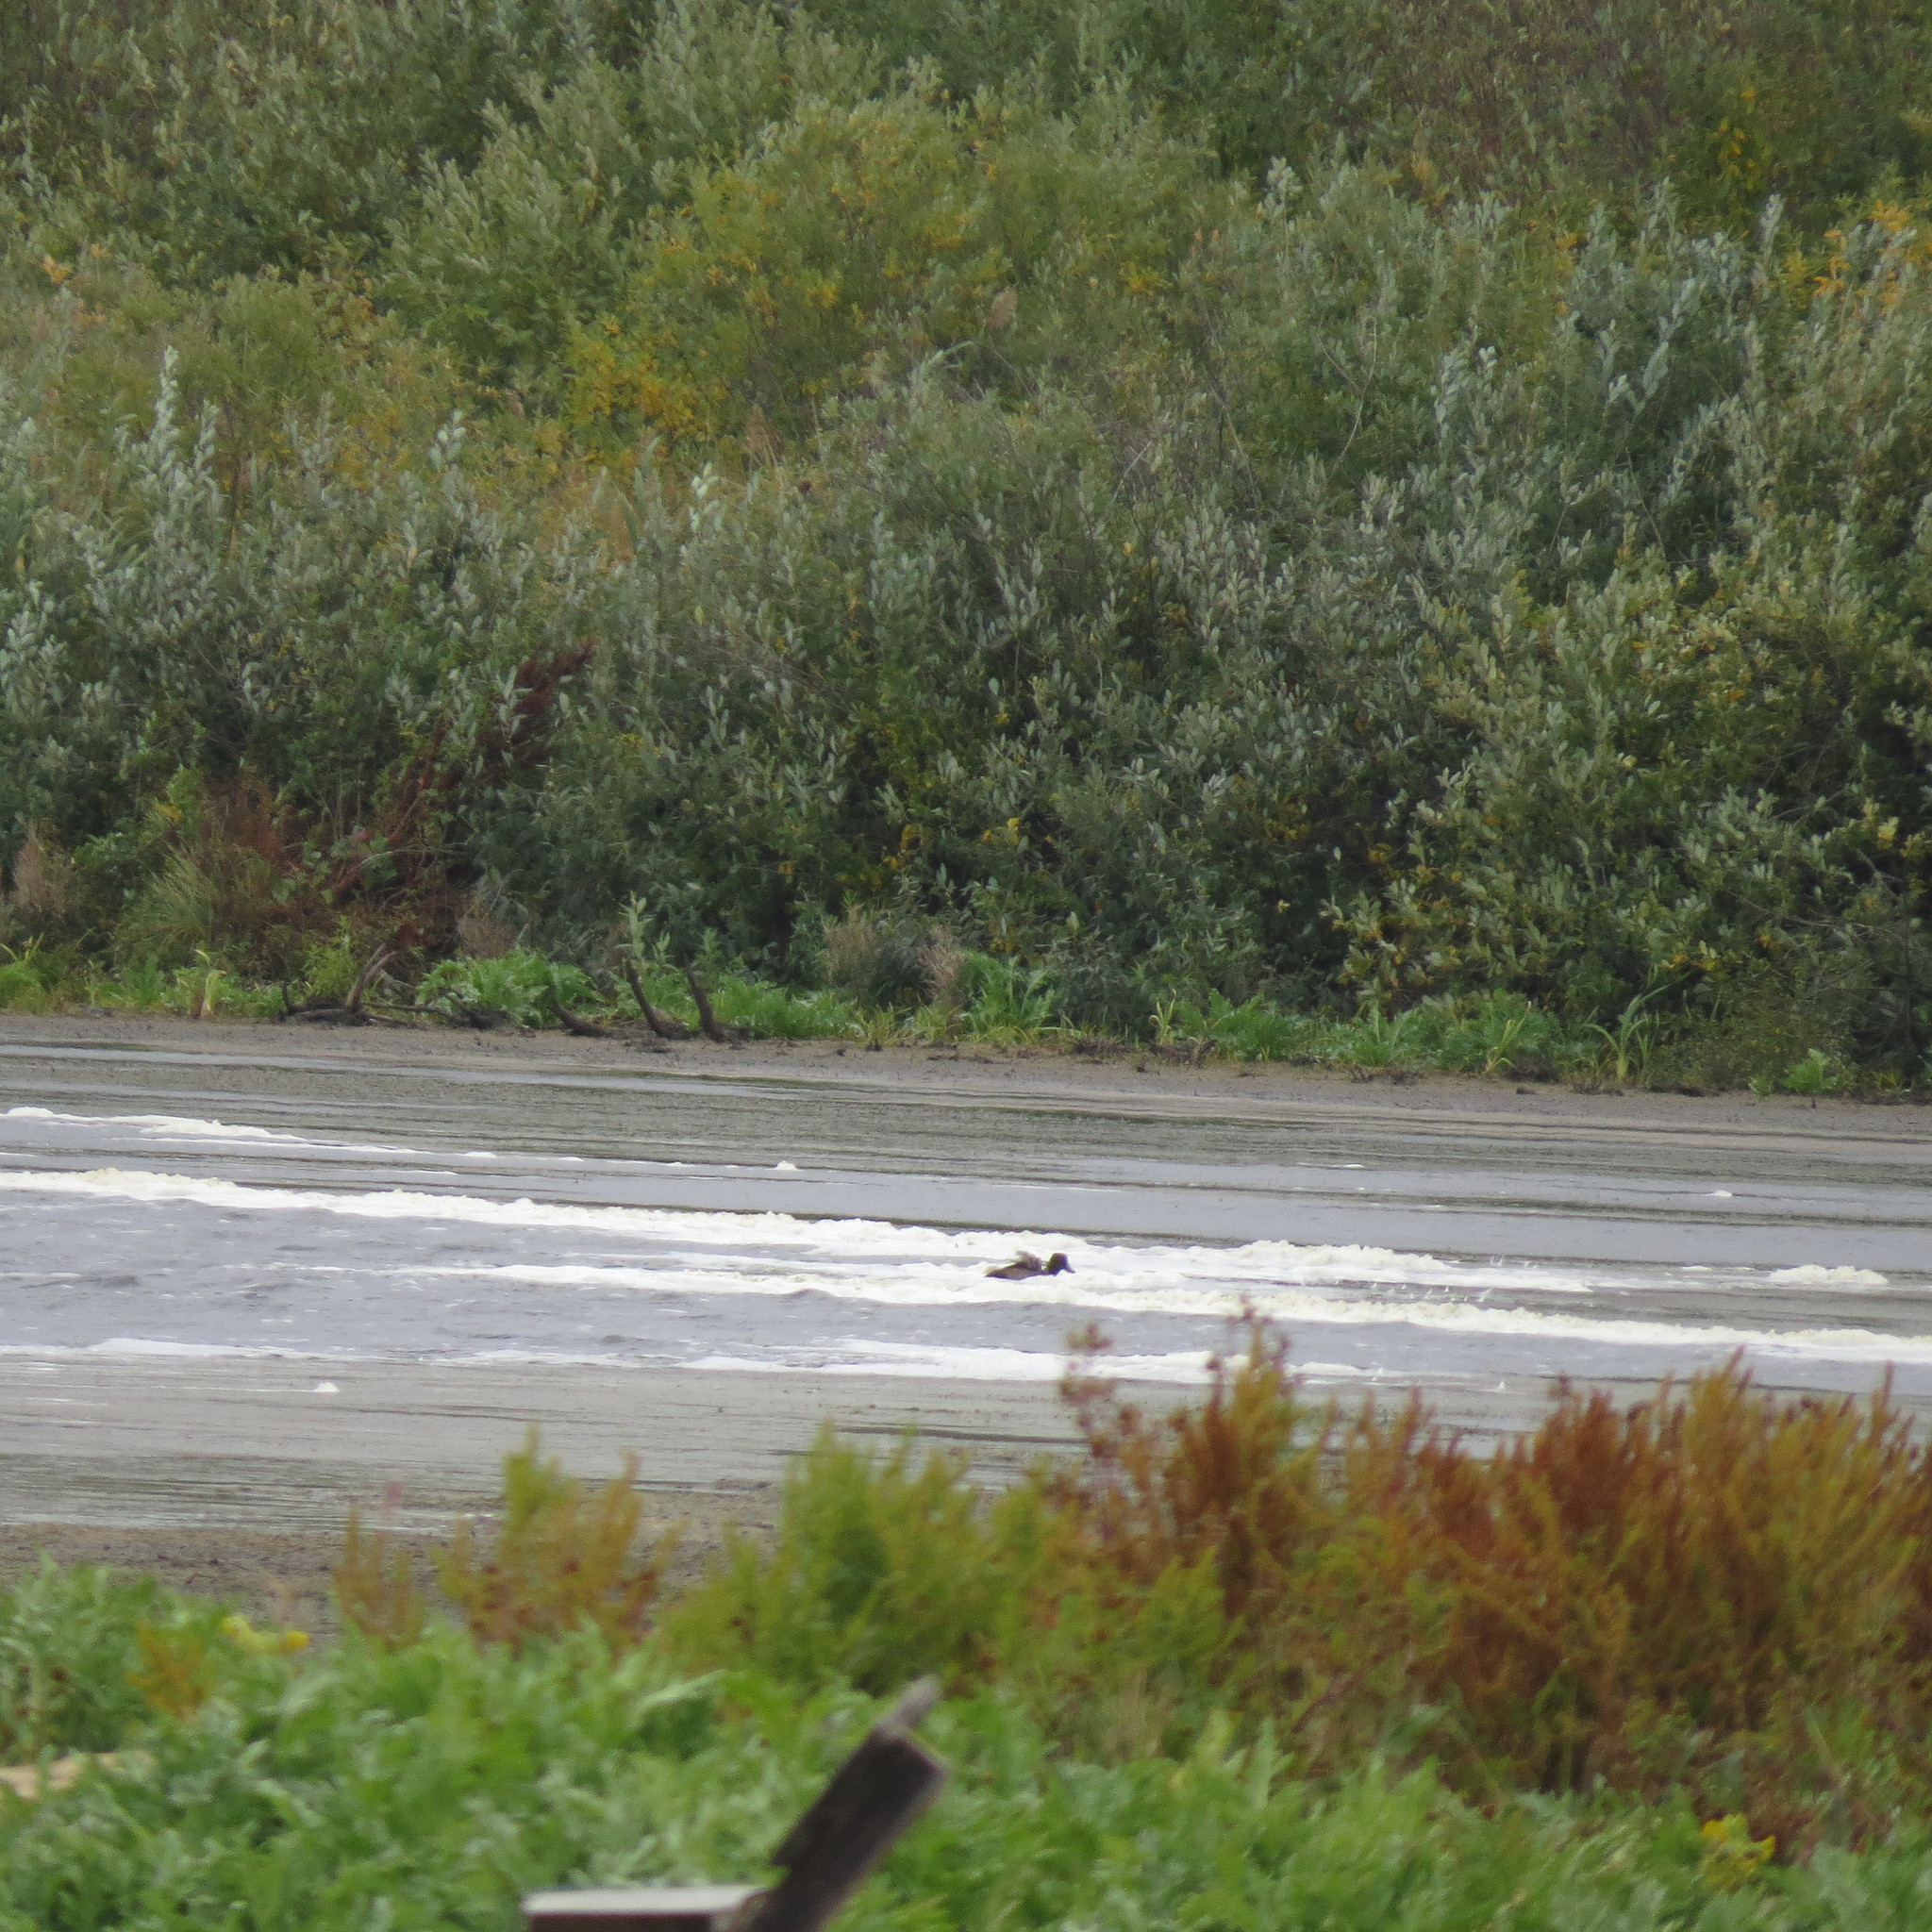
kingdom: Animalia
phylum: Chordata
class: Aves
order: Anseriformes
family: Anatidae
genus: Aythya
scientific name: Aythya fuligula
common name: Tufted duck
